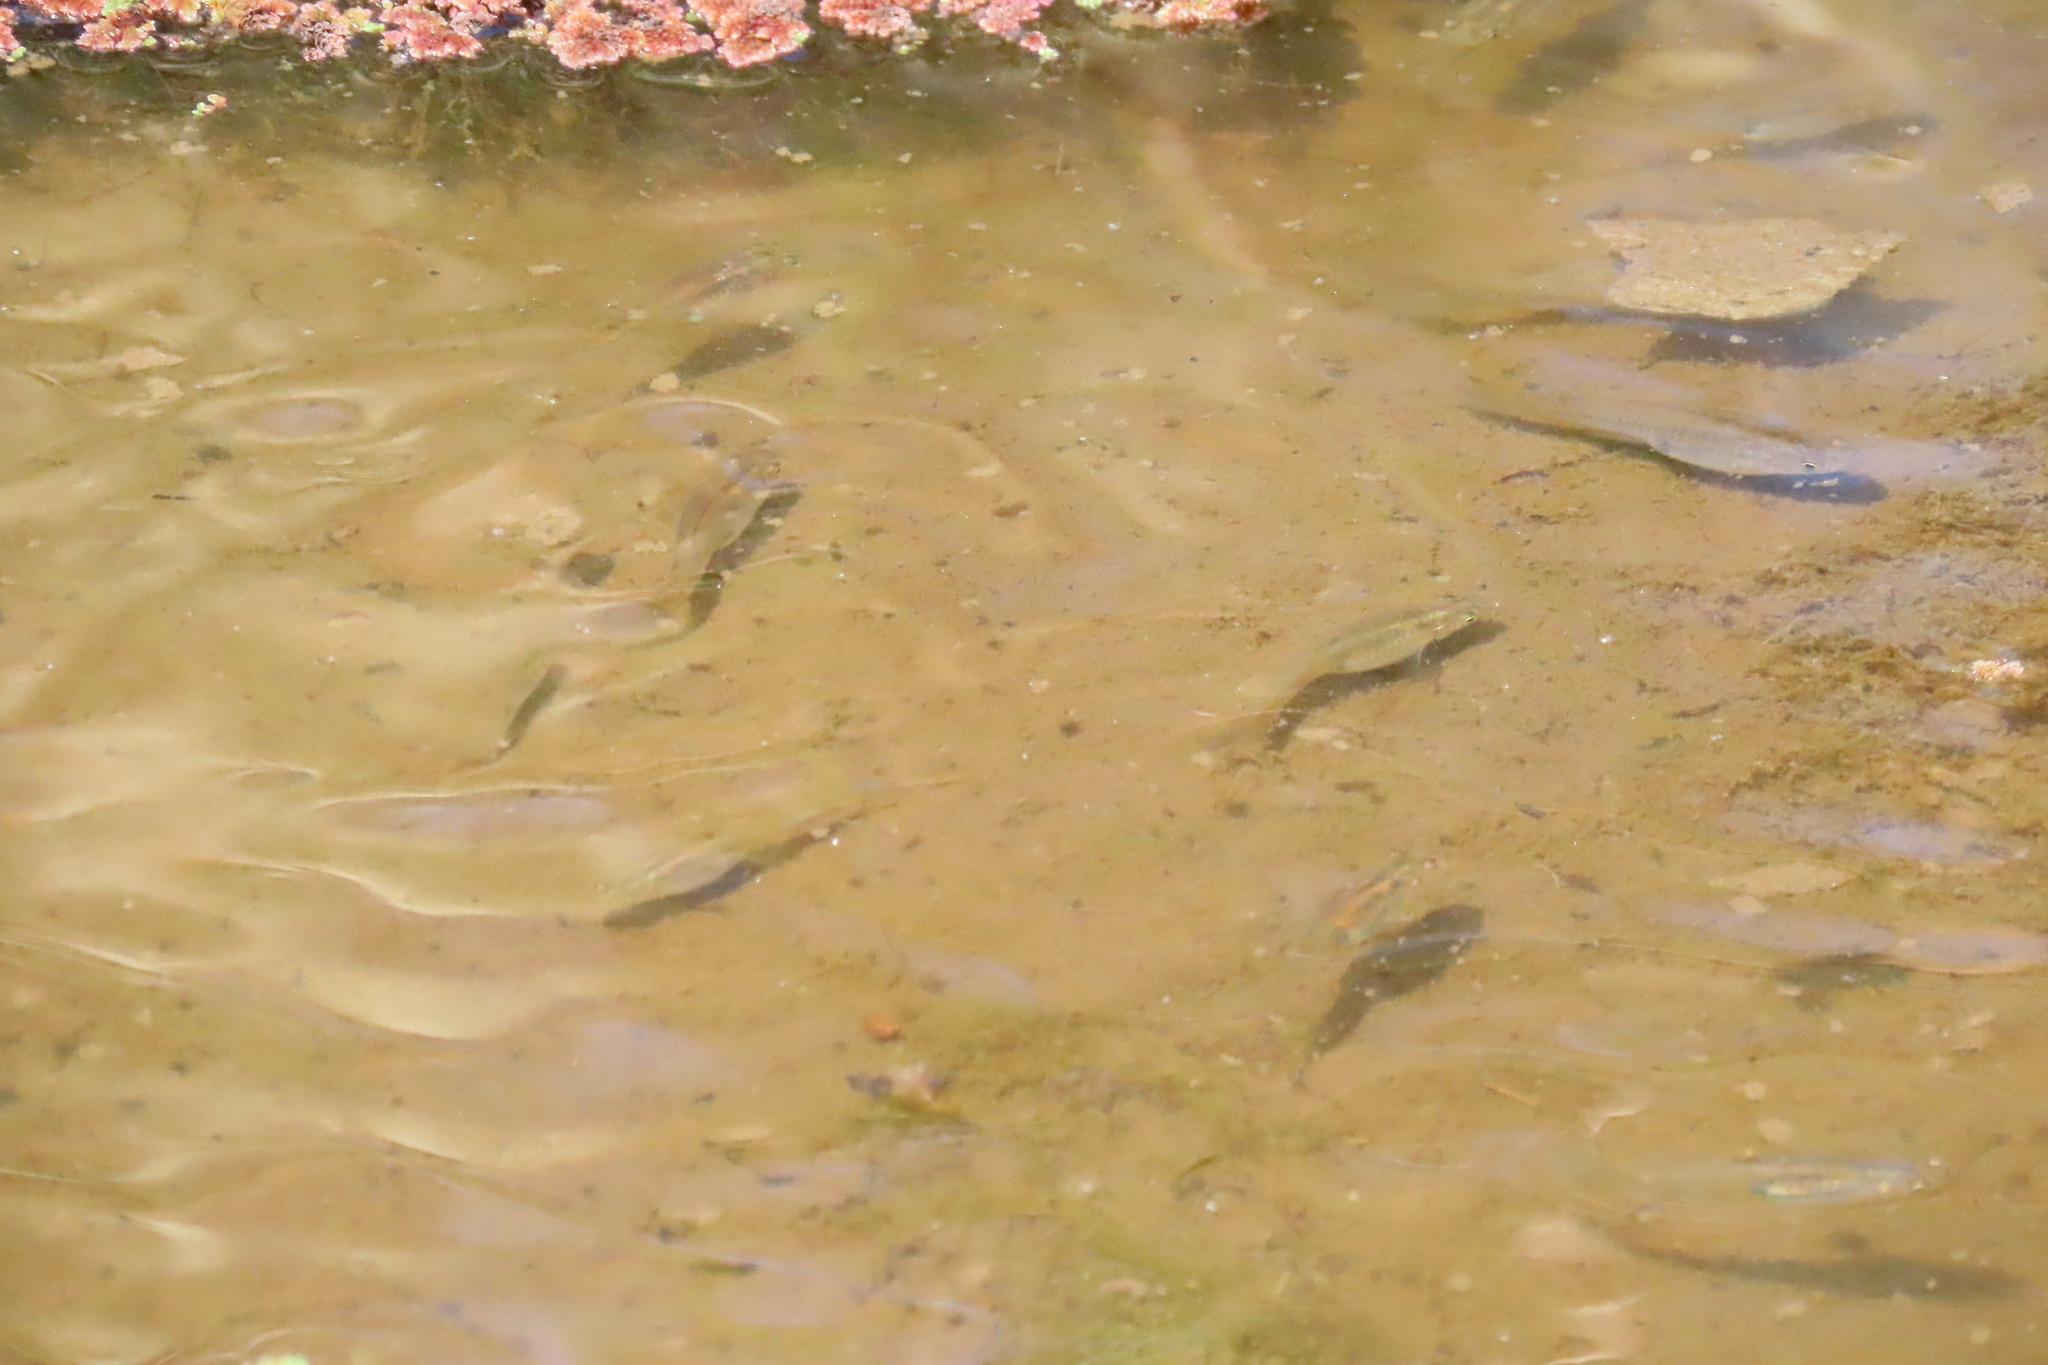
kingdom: Animalia
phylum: Chordata
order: Cyprinodontiformes
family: Poeciliidae
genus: Gambusia
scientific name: Gambusia affinis
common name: Mosquitofish
